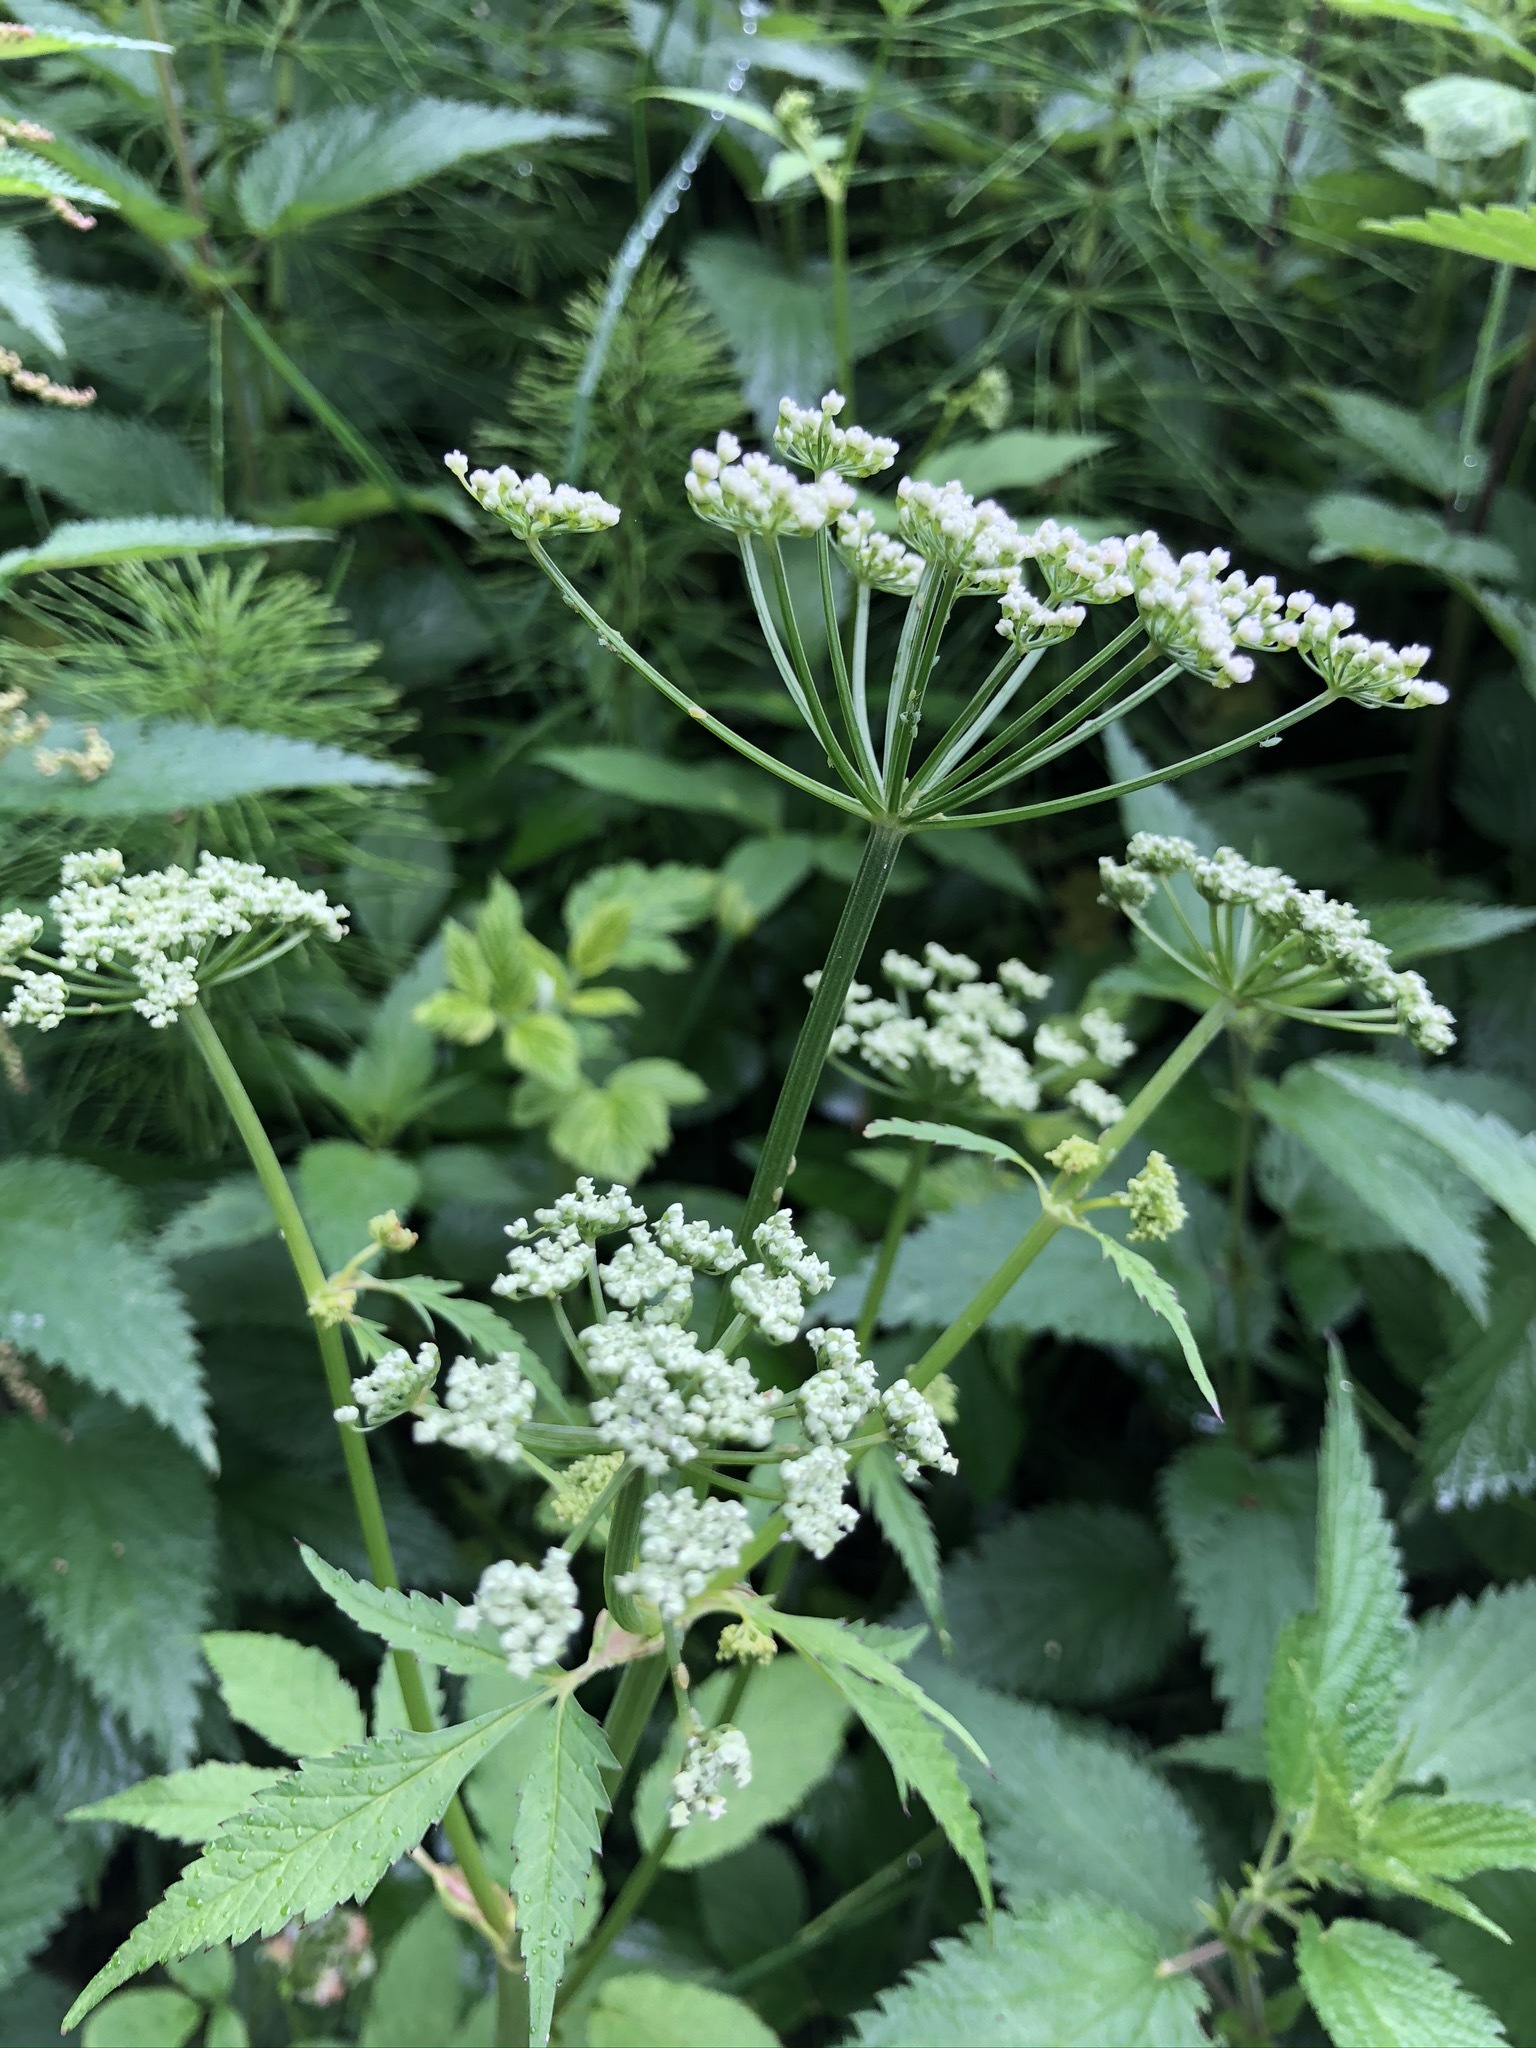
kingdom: Plantae
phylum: Tracheophyta
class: Magnoliopsida
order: Apiales
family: Apiaceae
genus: Aegopodium
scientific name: Aegopodium podagraria
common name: Ground-elder
